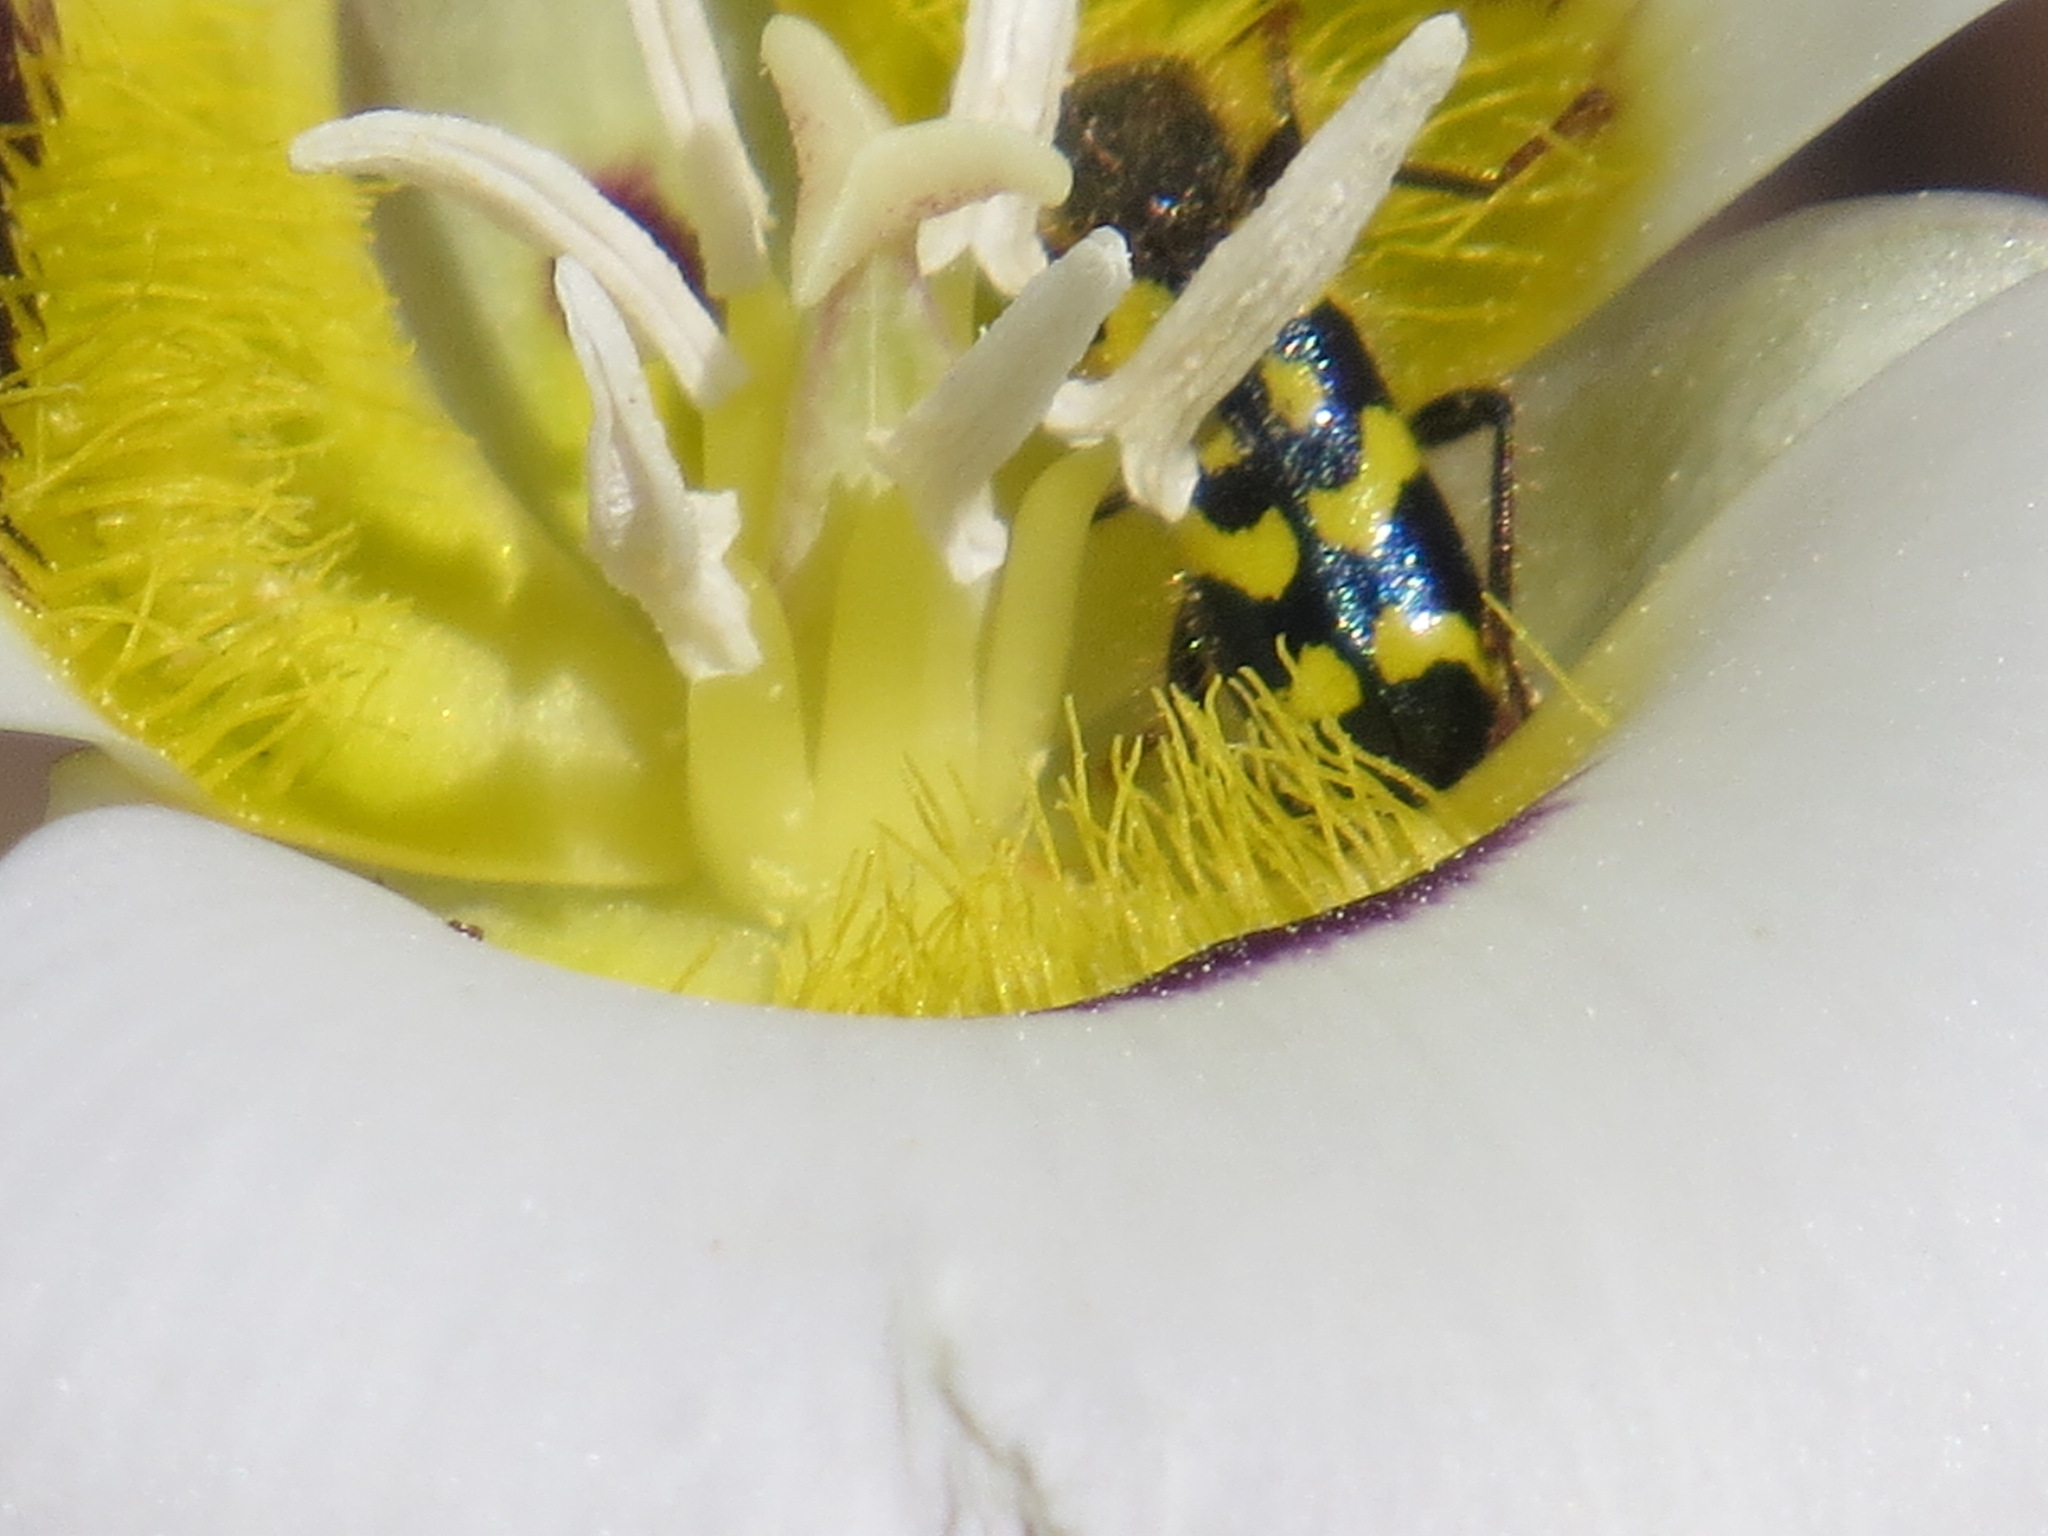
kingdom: Animalia
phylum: Arthropoda
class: Insecta
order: Coleoptera
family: Cleridae
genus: Trichodes
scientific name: Trichodes ornatus
